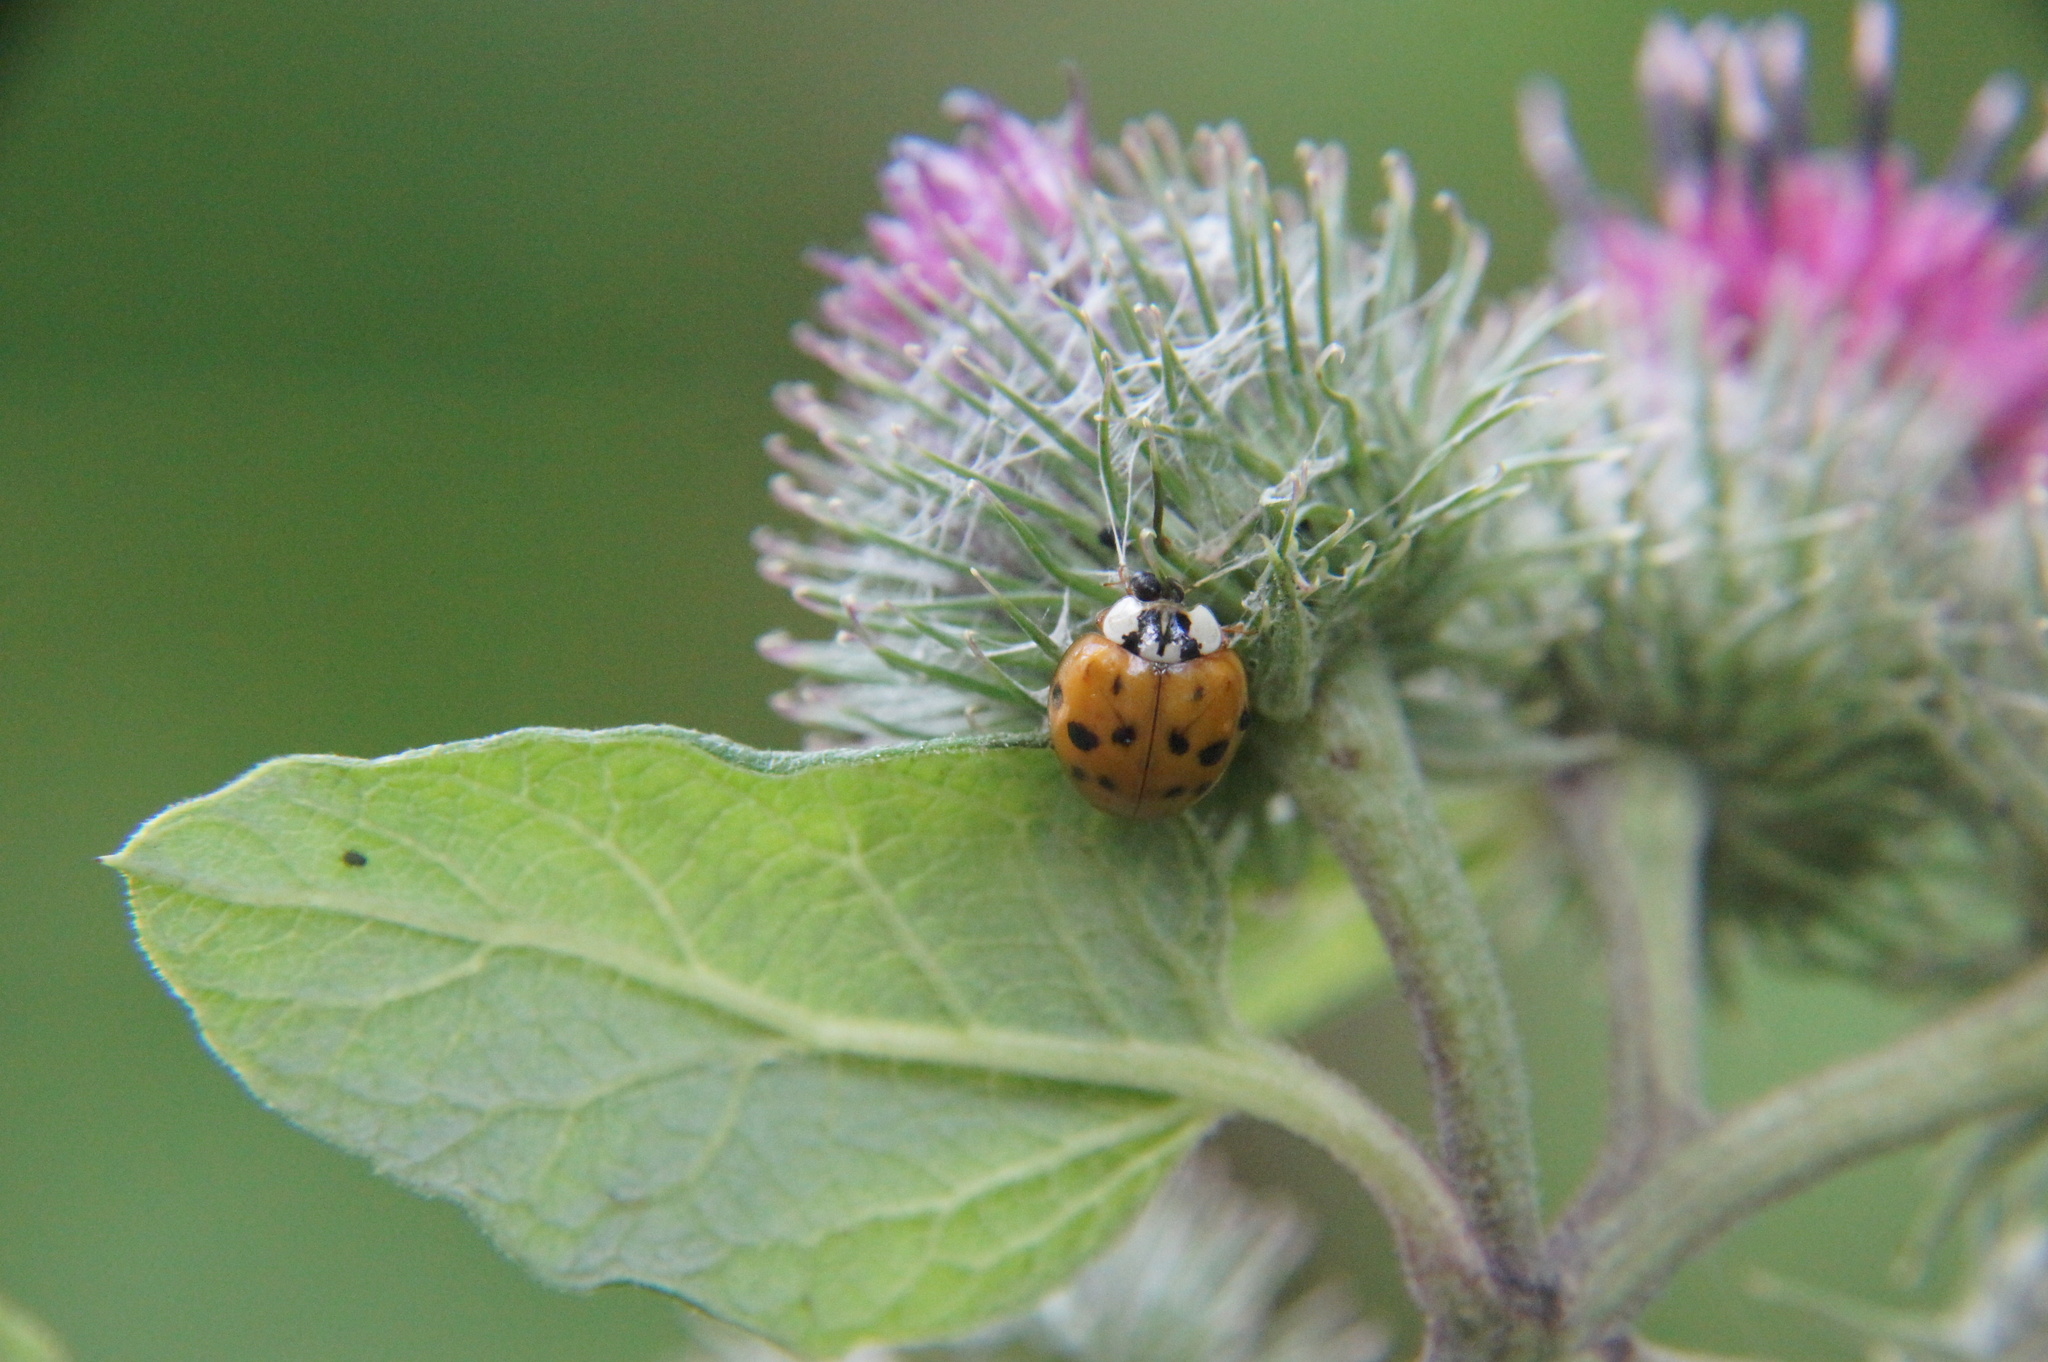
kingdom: Animalia
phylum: Arthropoda
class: Insecta
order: Coleoptera
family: Coccinellidae
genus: Harmonia
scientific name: Harmonia axyridis
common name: Harlequin ladybird
